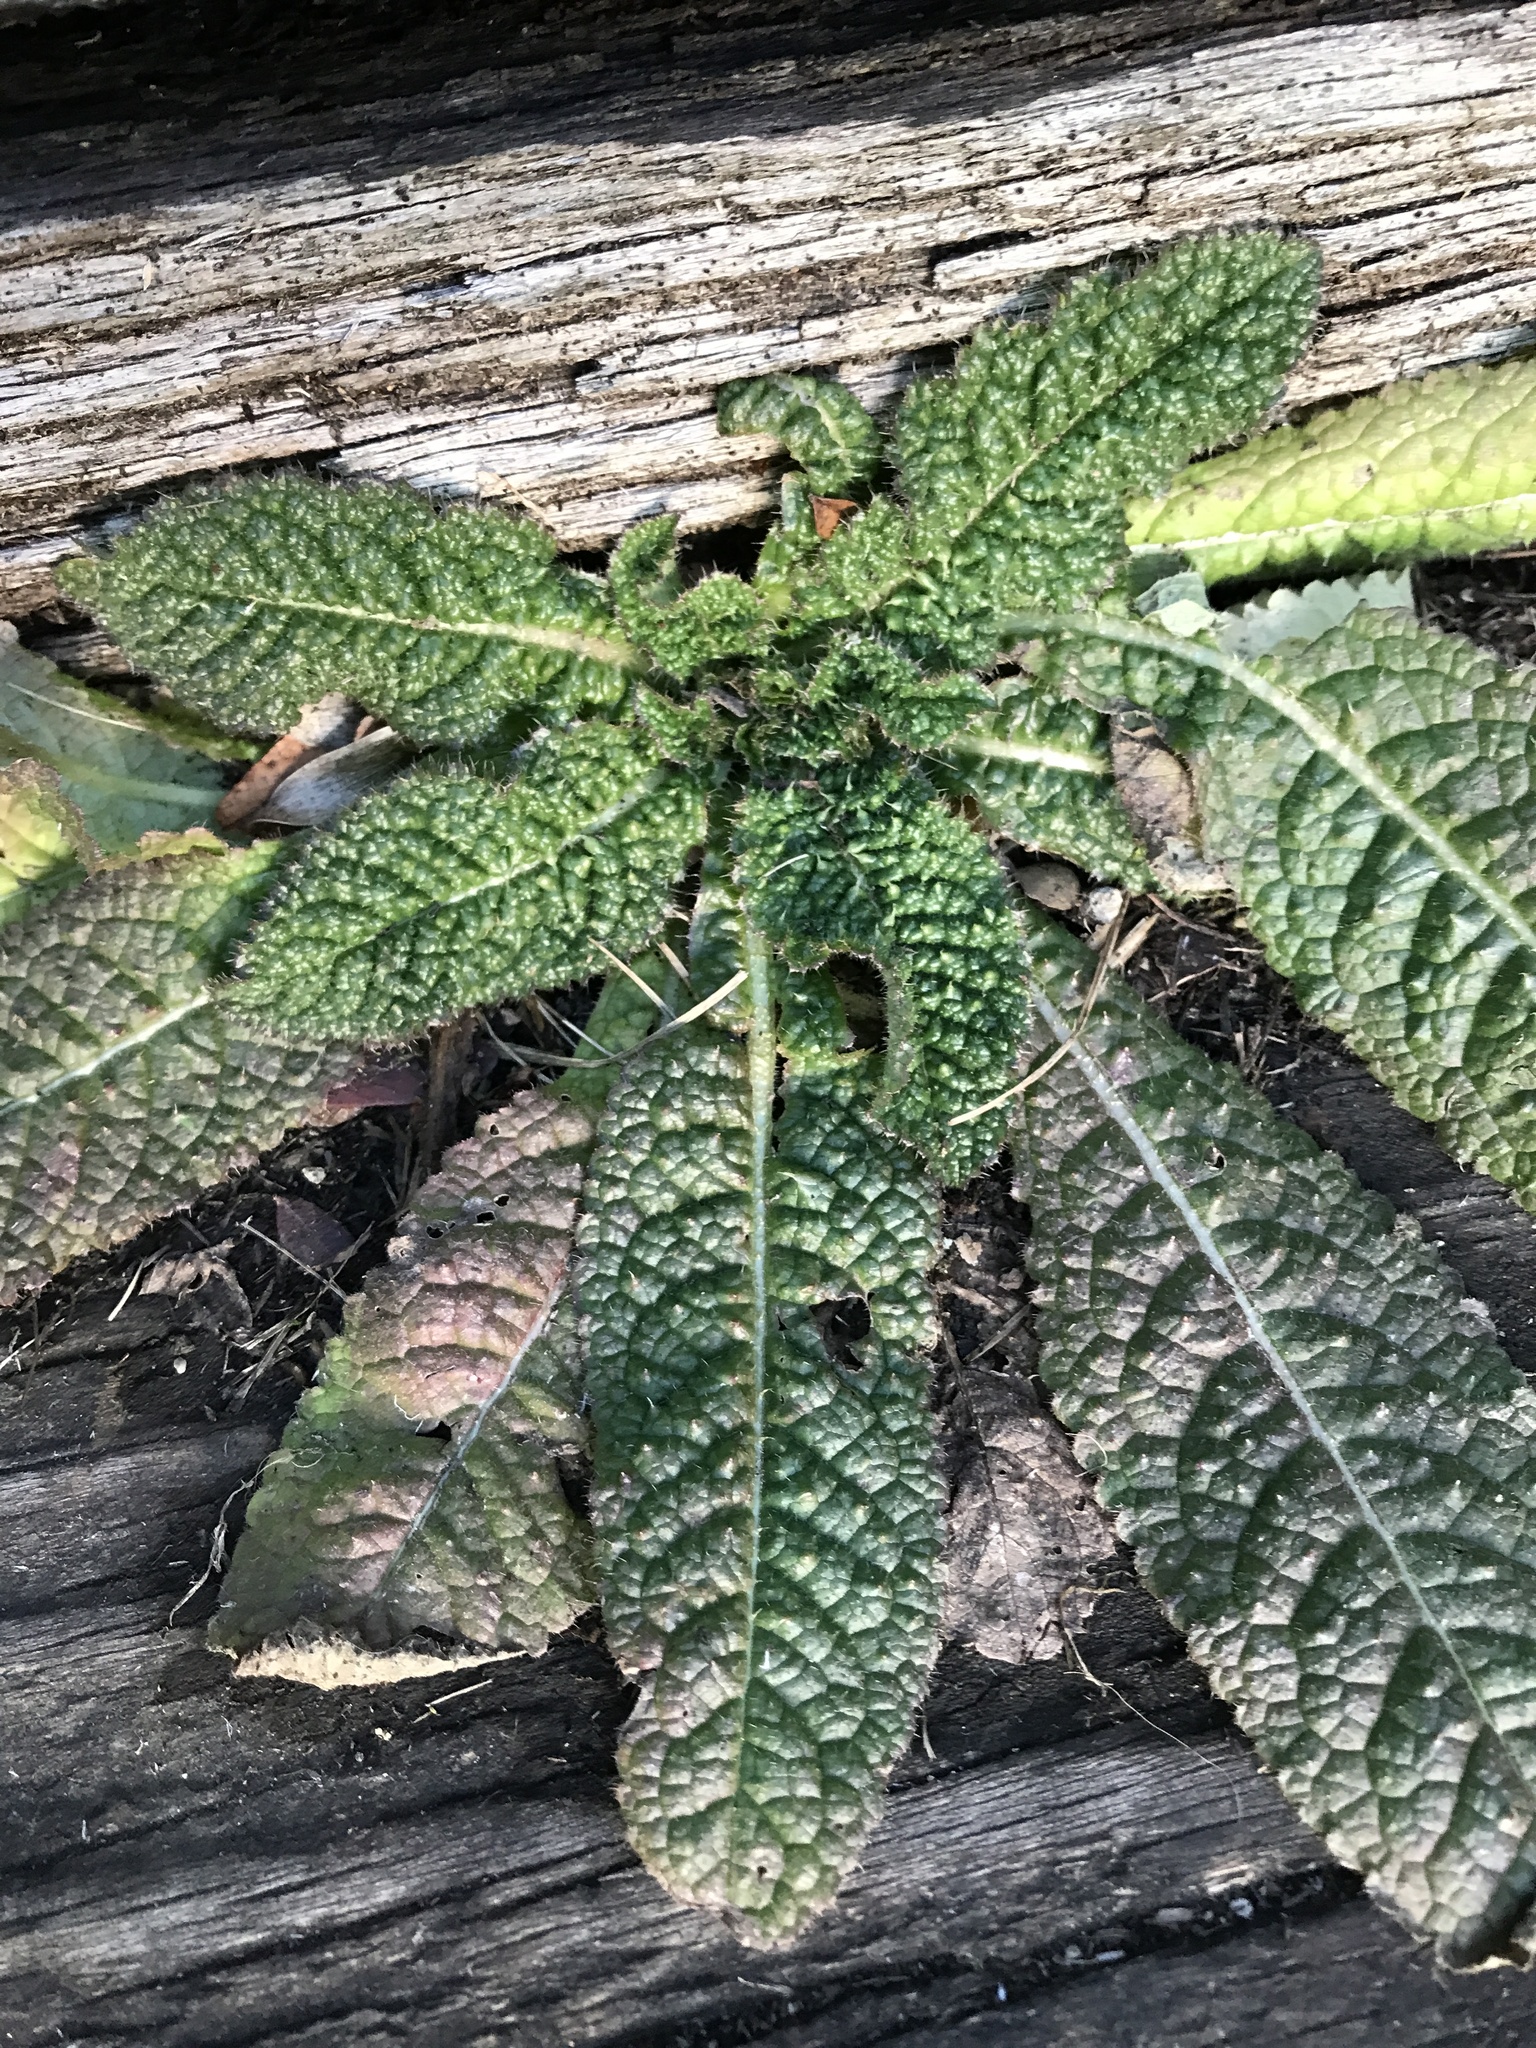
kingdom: Plantae
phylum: Tracheophyta
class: Magnoliopsida
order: Dipsacales
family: Caprifoliaceae
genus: Dipsacus
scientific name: Dipsacus fullonum
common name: Teasel
